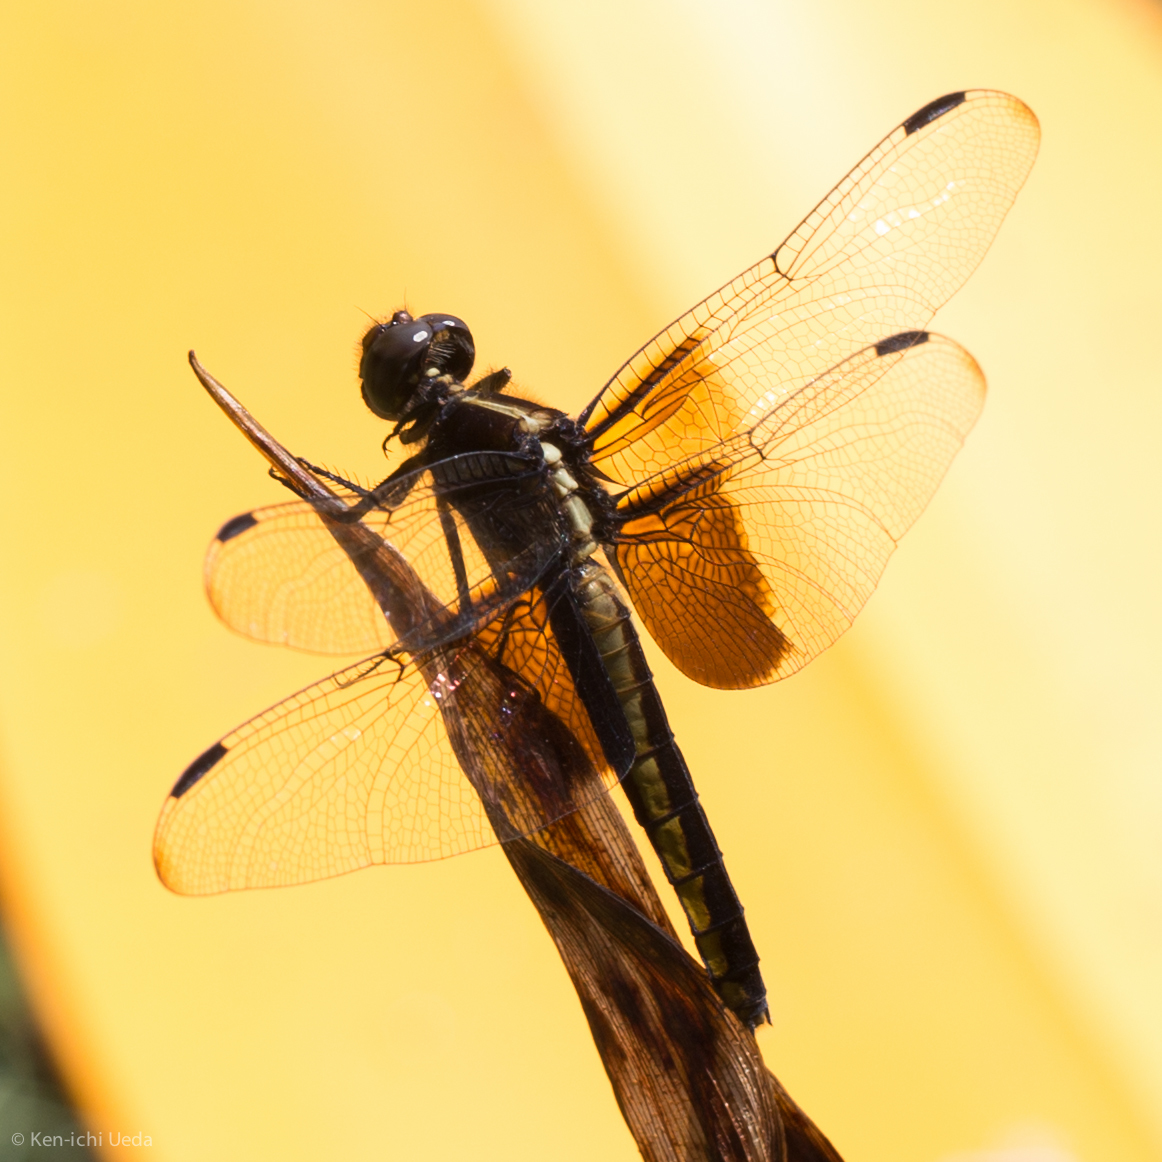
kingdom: Animalia
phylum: Arthropoda
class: Insecta
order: Odonata
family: Libellulidae
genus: Libellula
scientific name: Libellula luctuosa
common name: Widow skimmer
